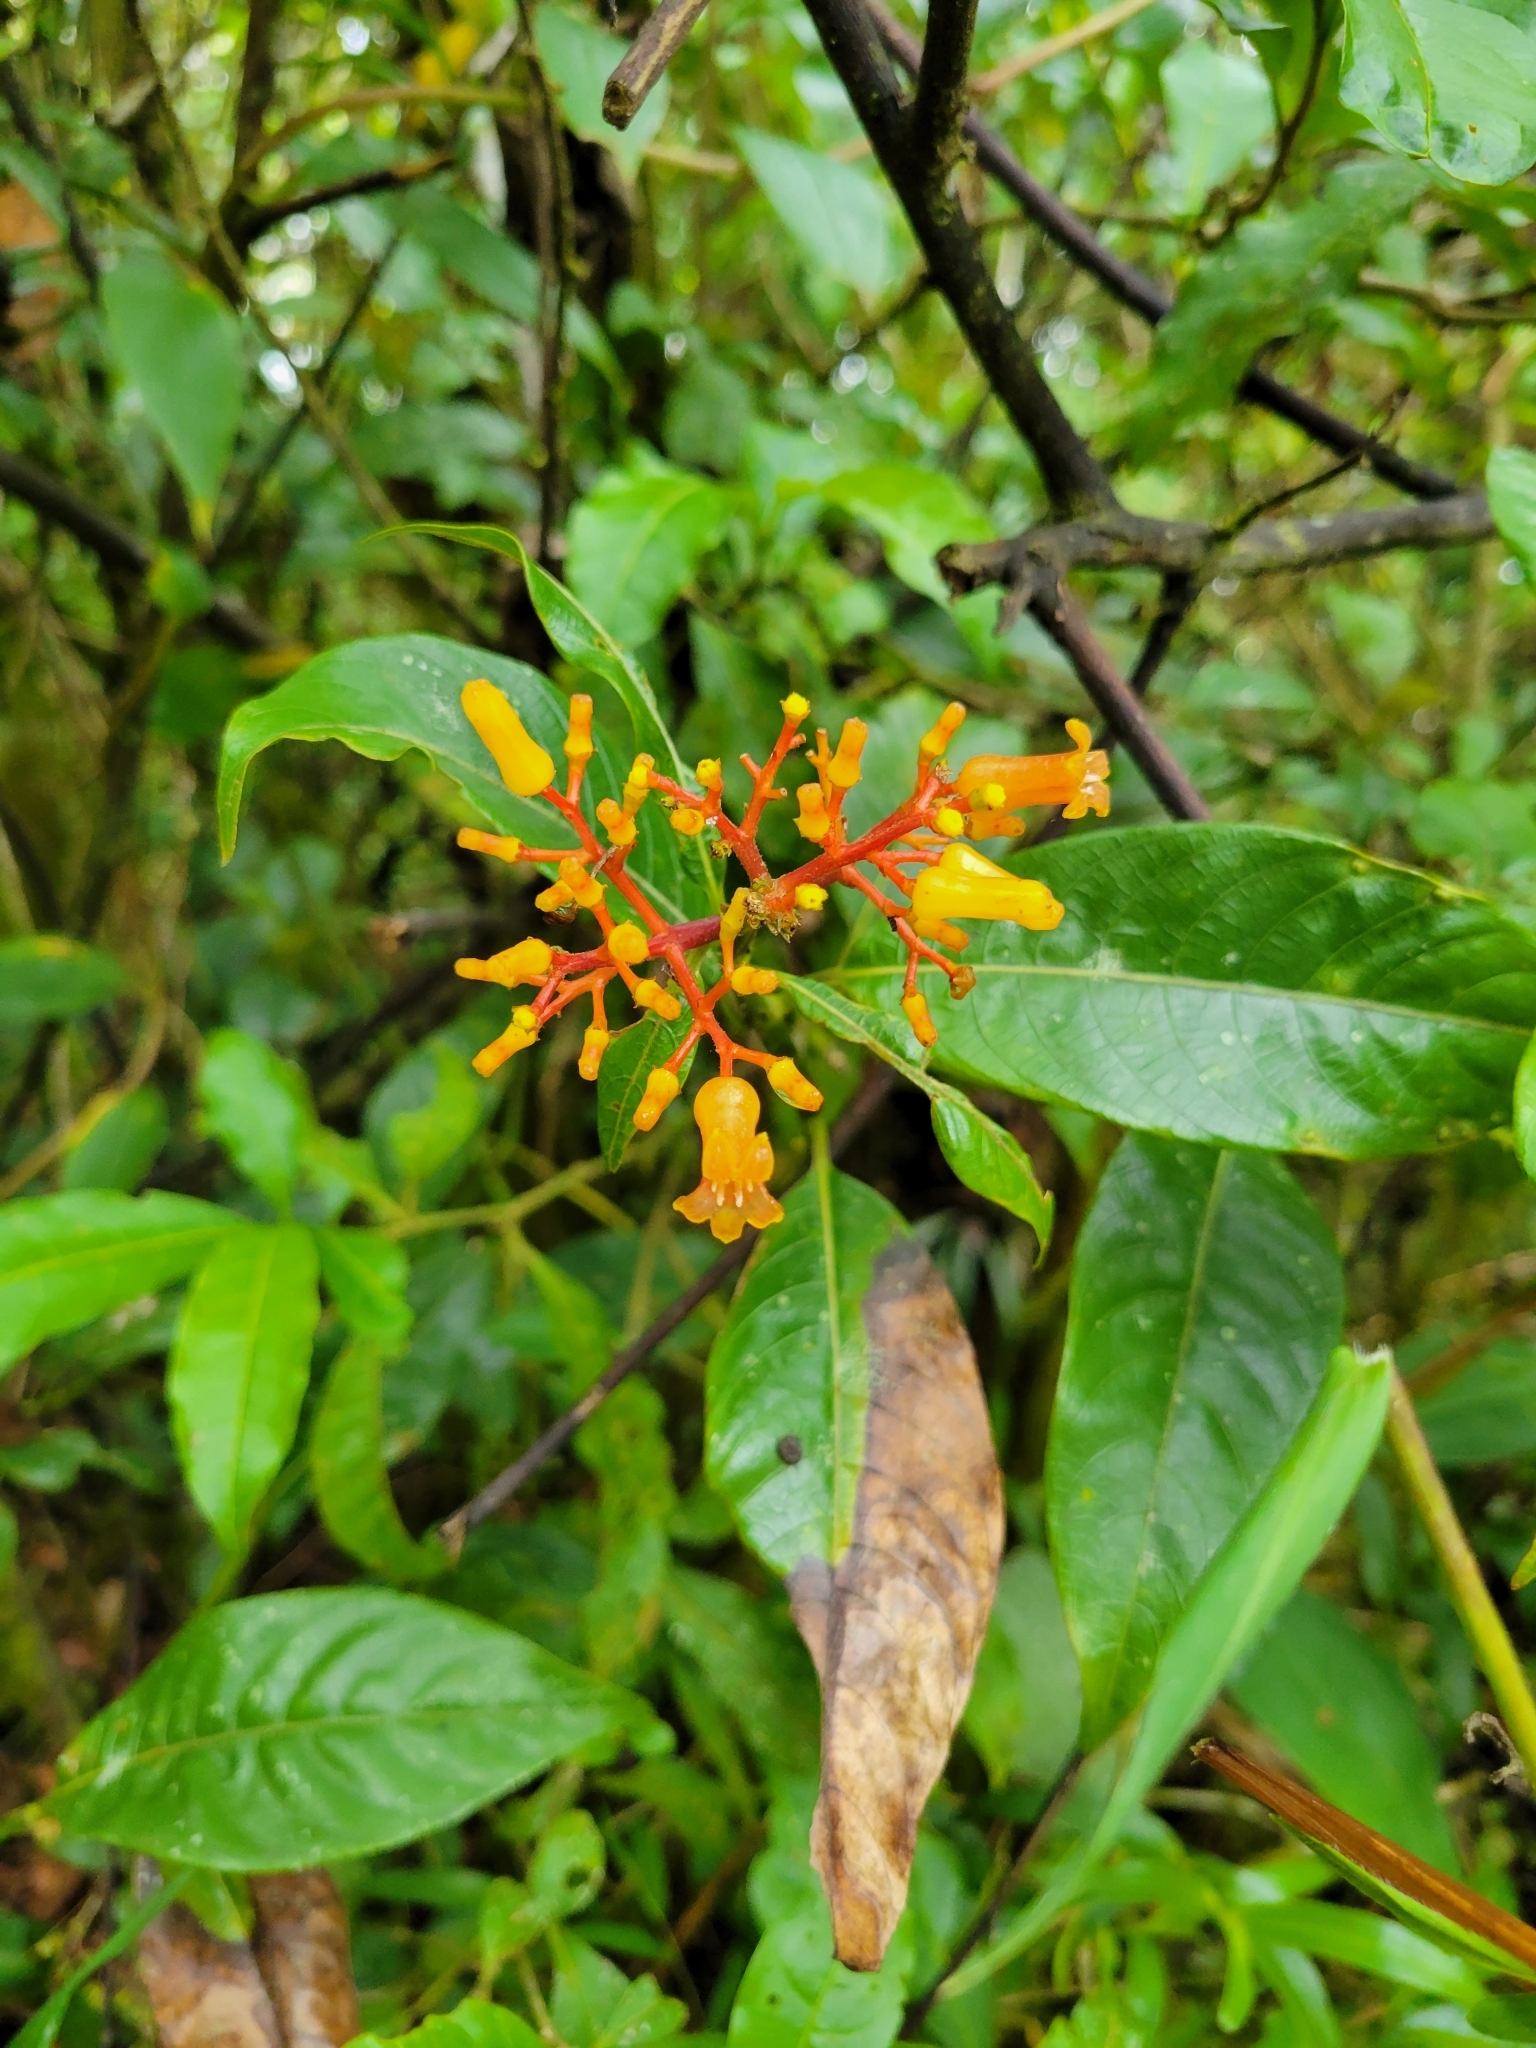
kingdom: Plantae
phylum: Tracheophyta
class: Magnoliopsida
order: Gentianales
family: Rubiaceae
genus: Palicourea
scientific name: Palicourea padifolia
